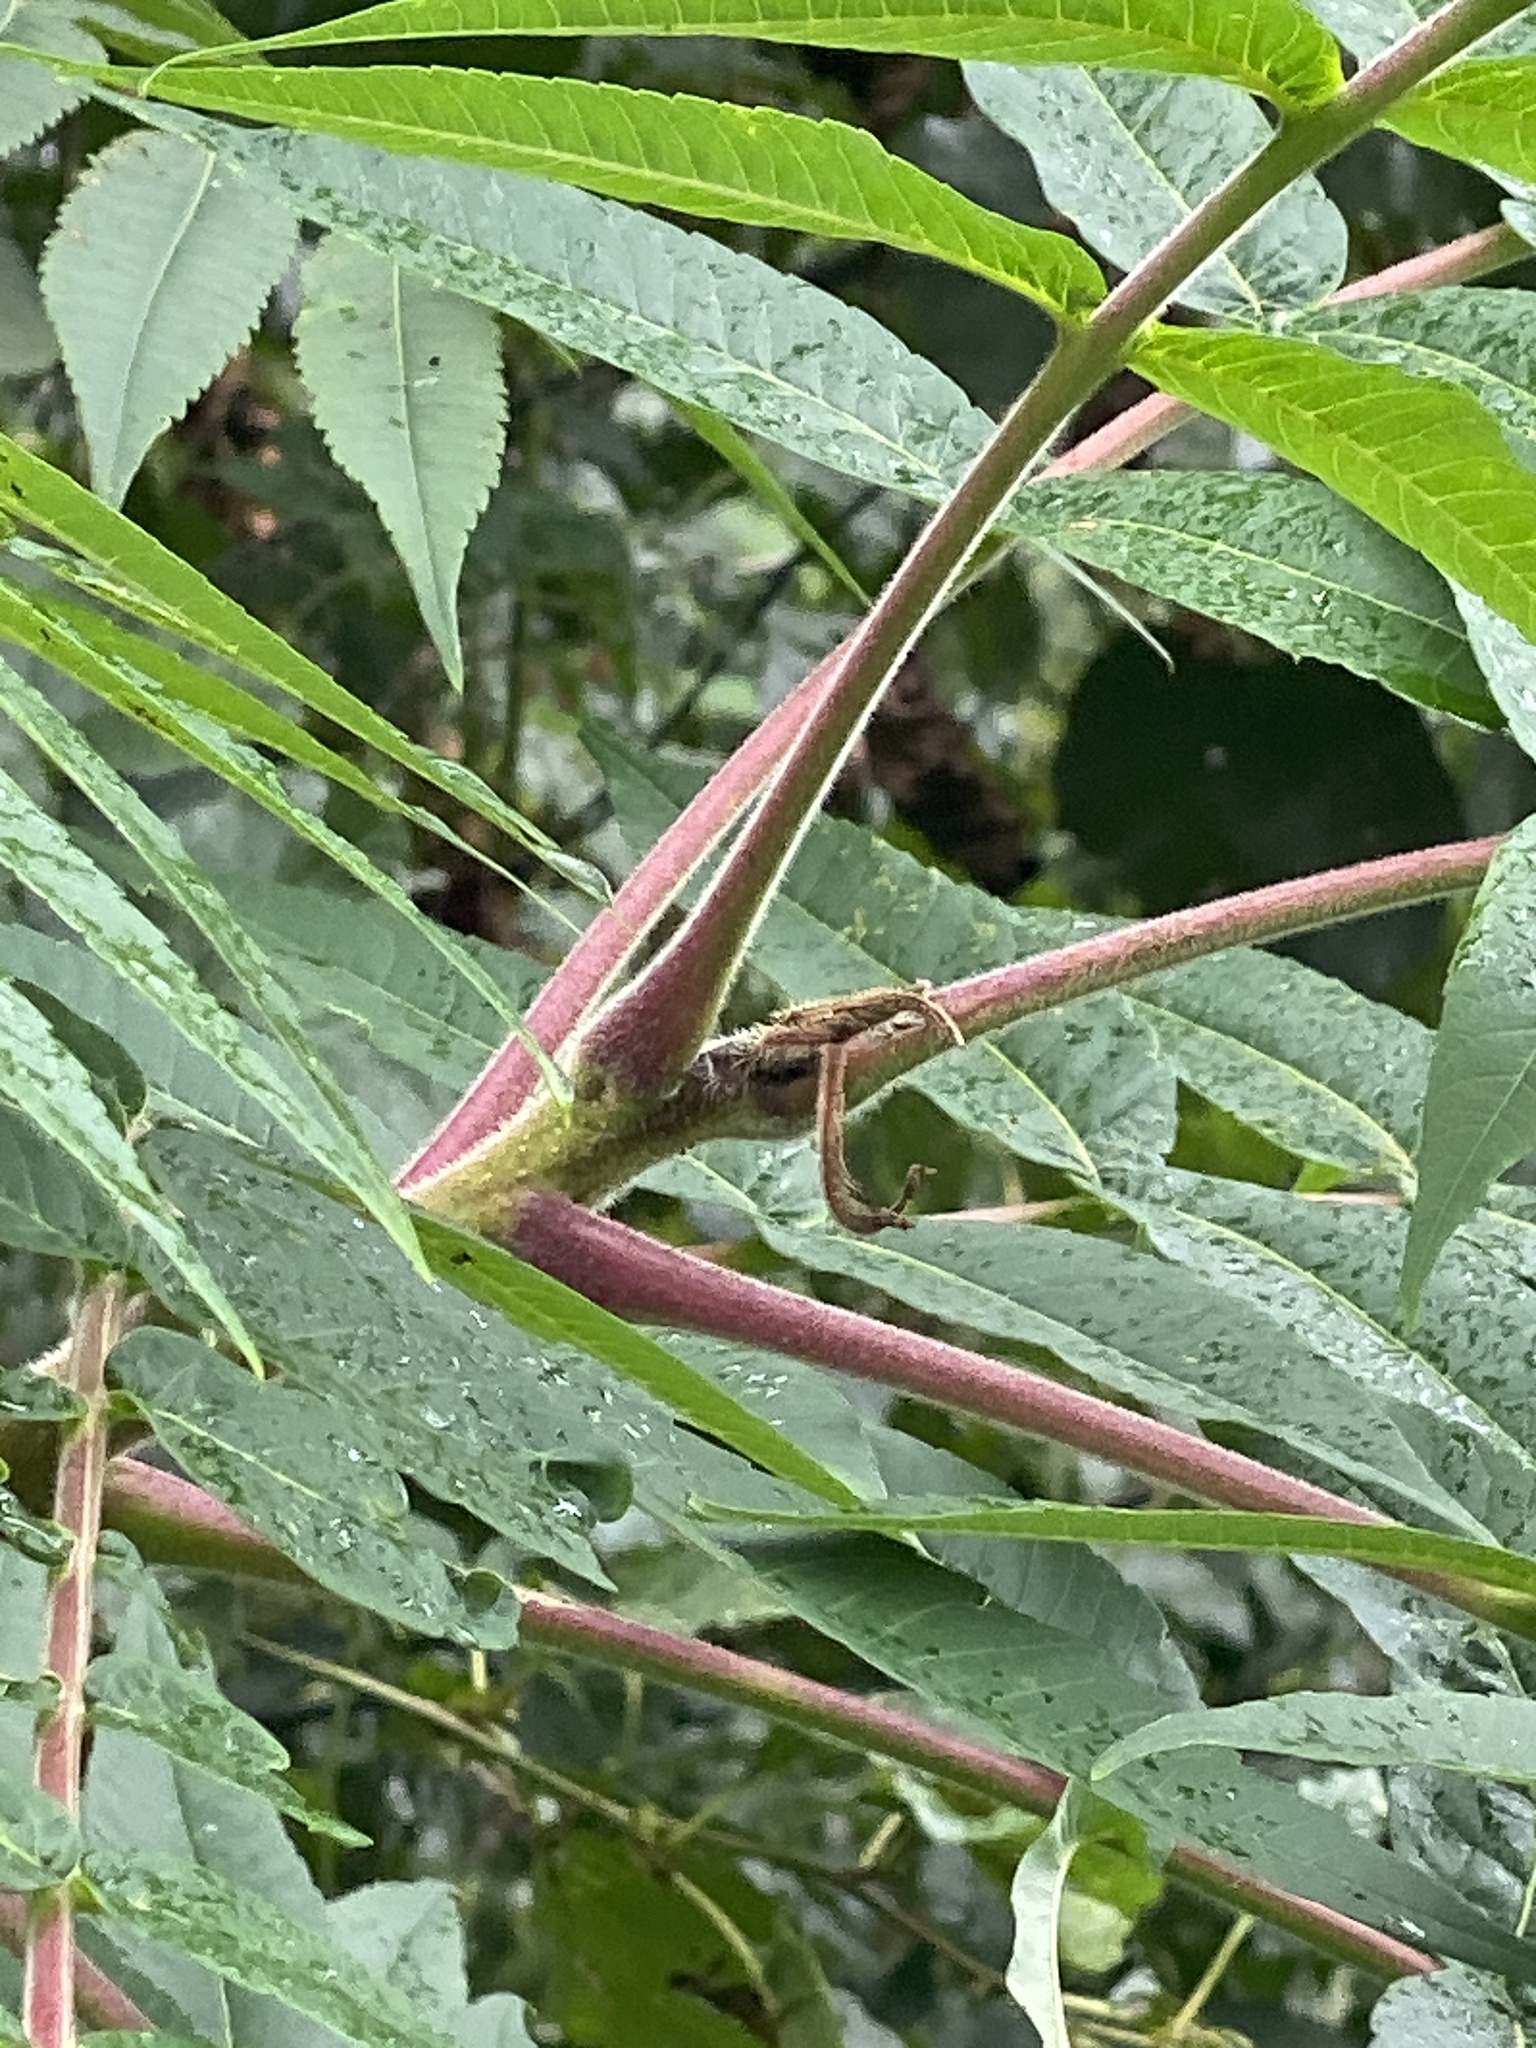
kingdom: Plantae
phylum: Tracheophyta
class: Magnoliopsida
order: Sapindales
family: Anacardiaceae
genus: Rhus
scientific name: Rhus typhina
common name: Staghorn sumac
